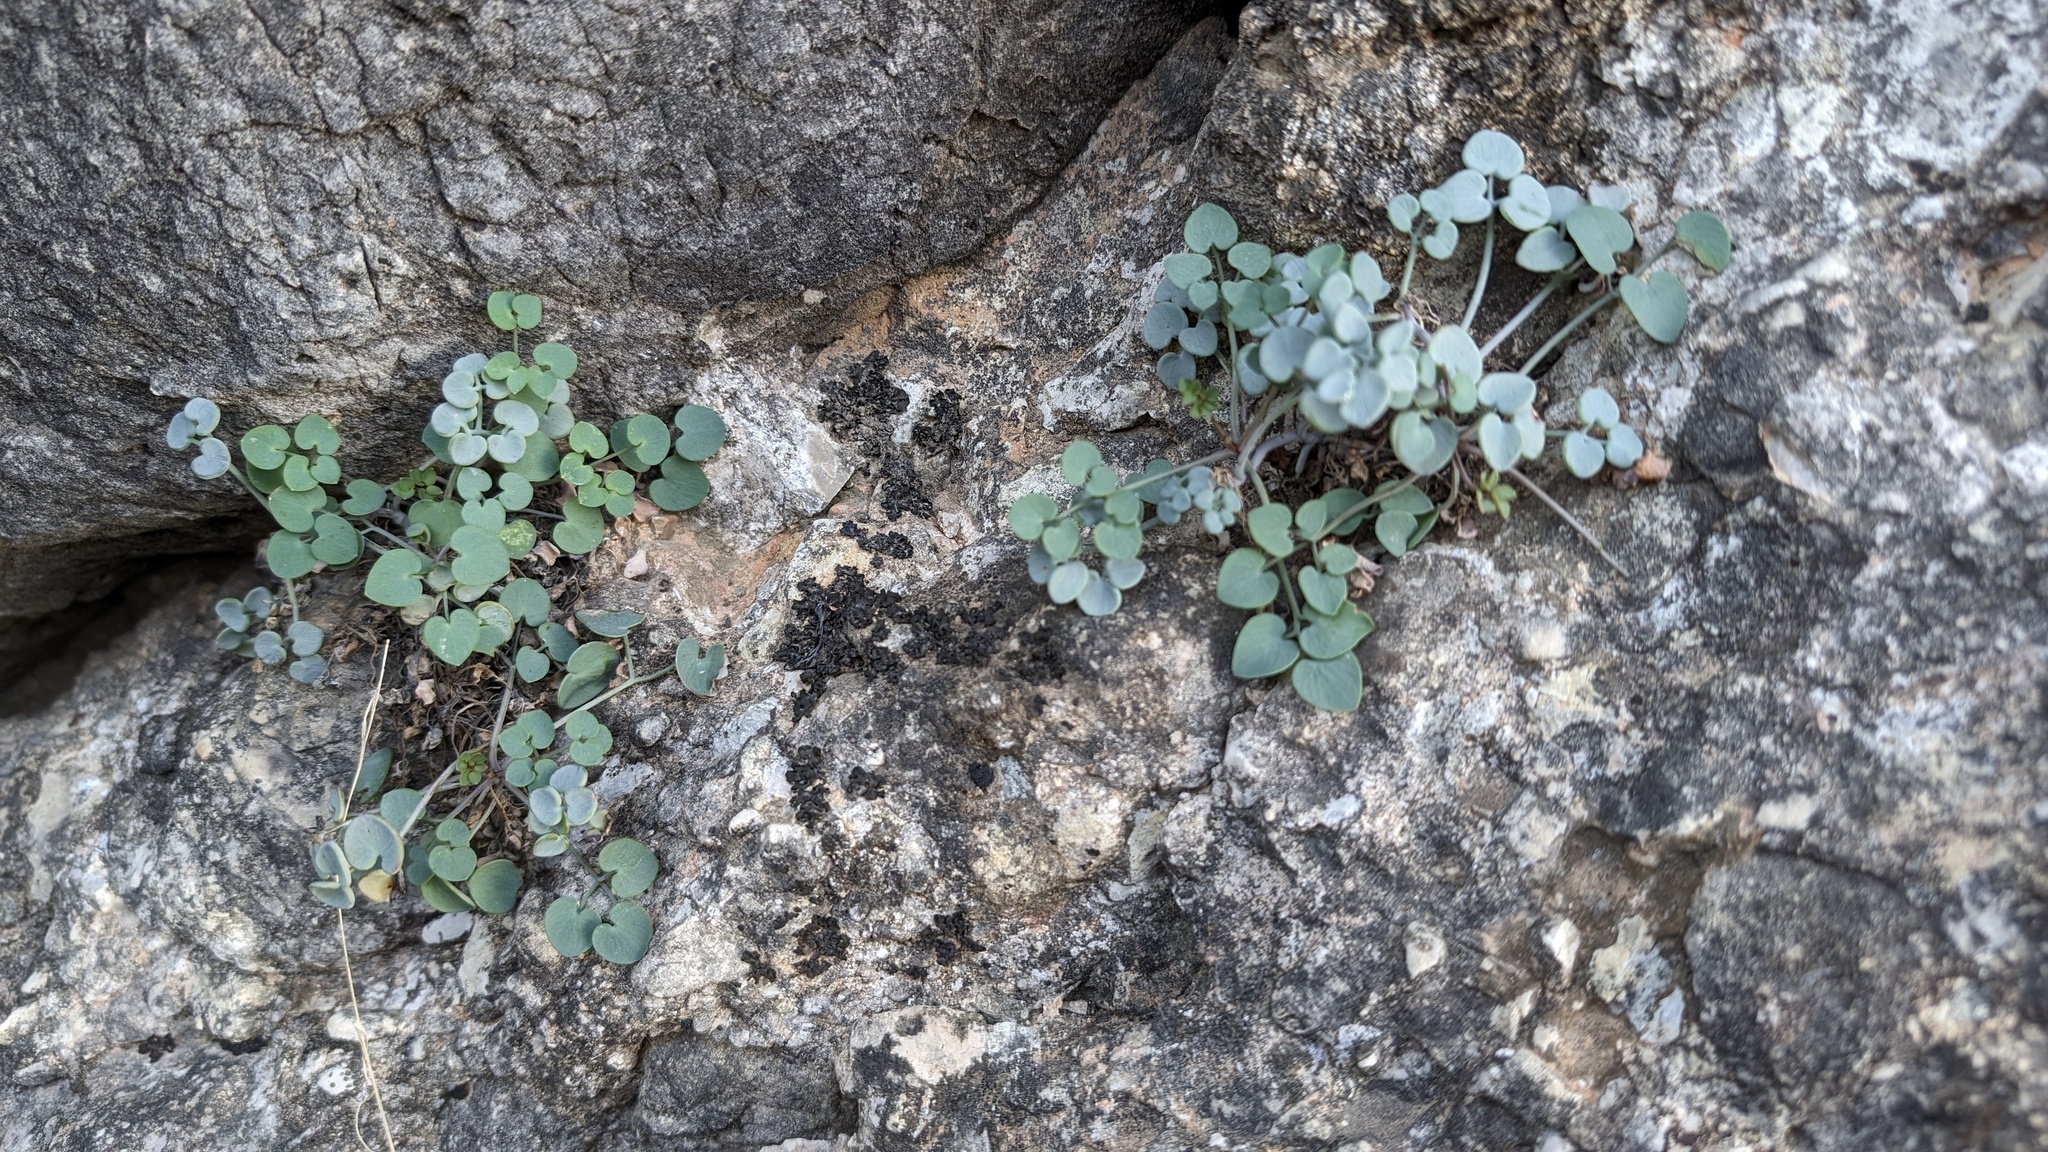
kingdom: Plantae
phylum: Tracheophyta
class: Magnoliopsida
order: Ranunculales
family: Papaveraceae
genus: Sarcocapnos
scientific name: Sarcocapnos enneaphylla
